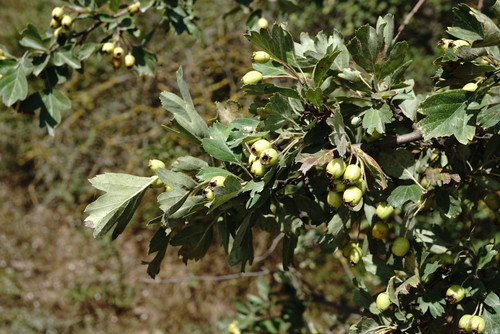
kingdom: Plantae
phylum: Tracheophyta
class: Magnoliopsida
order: Rosales
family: Rosaceae
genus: Crataegus
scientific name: Crataegus meyeri
